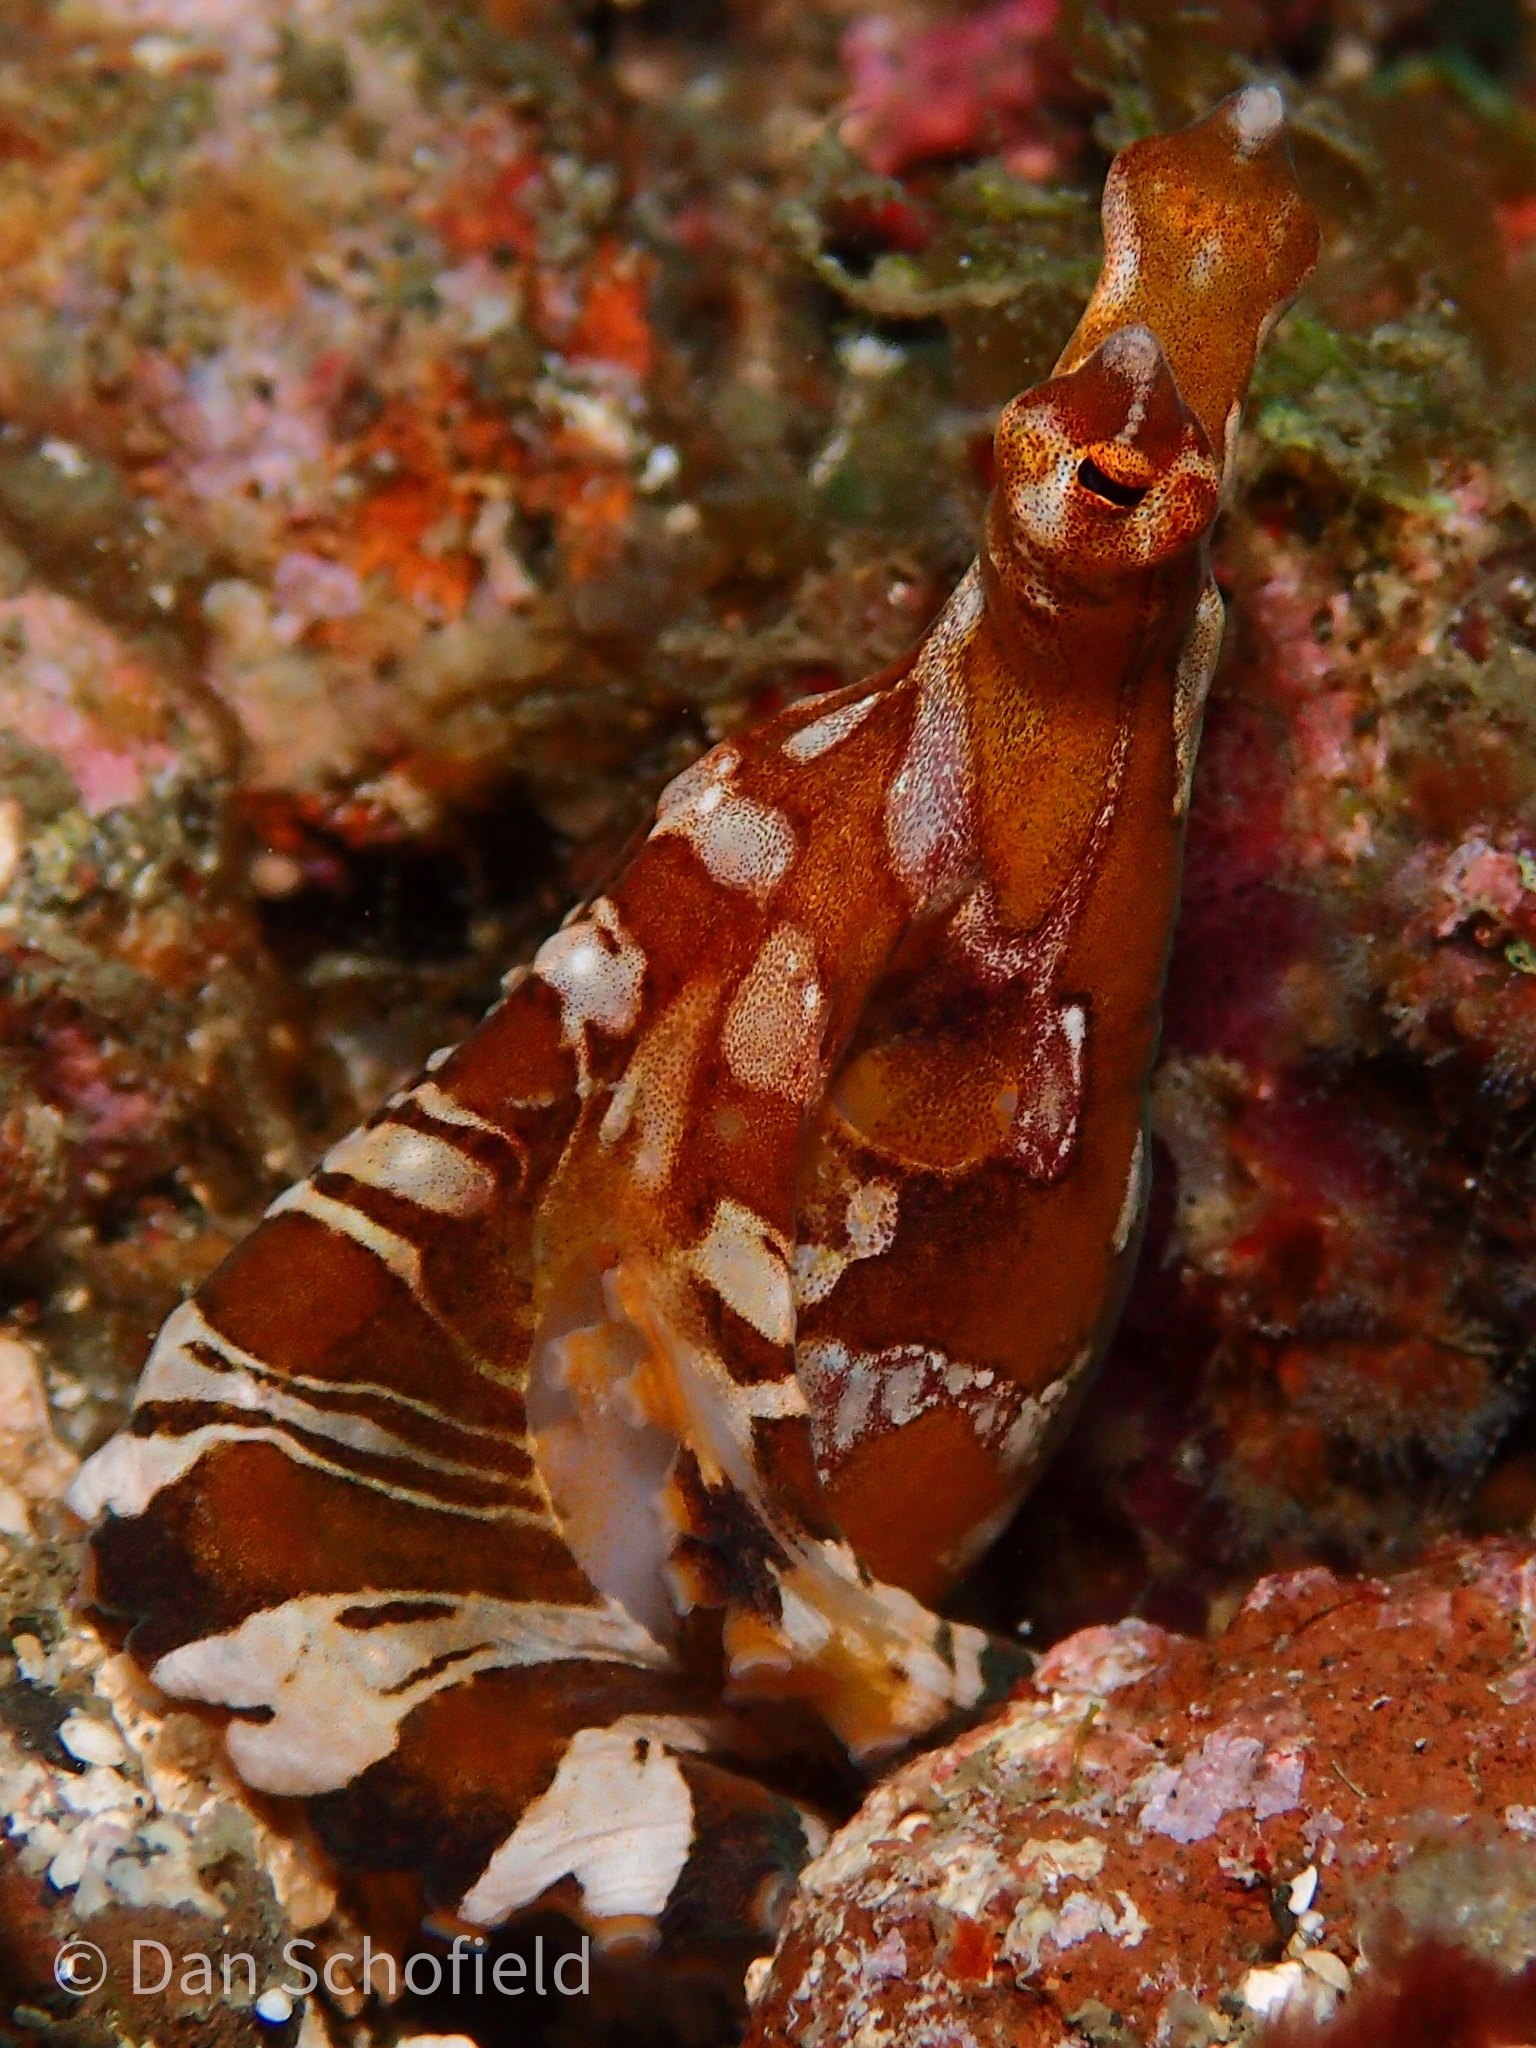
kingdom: Animalia
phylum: Mollusca
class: Cephalopoda
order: Octopoda
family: Octopodidae
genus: Wunderpus
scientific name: Wunderpus photogenicus
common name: Wunderpus
